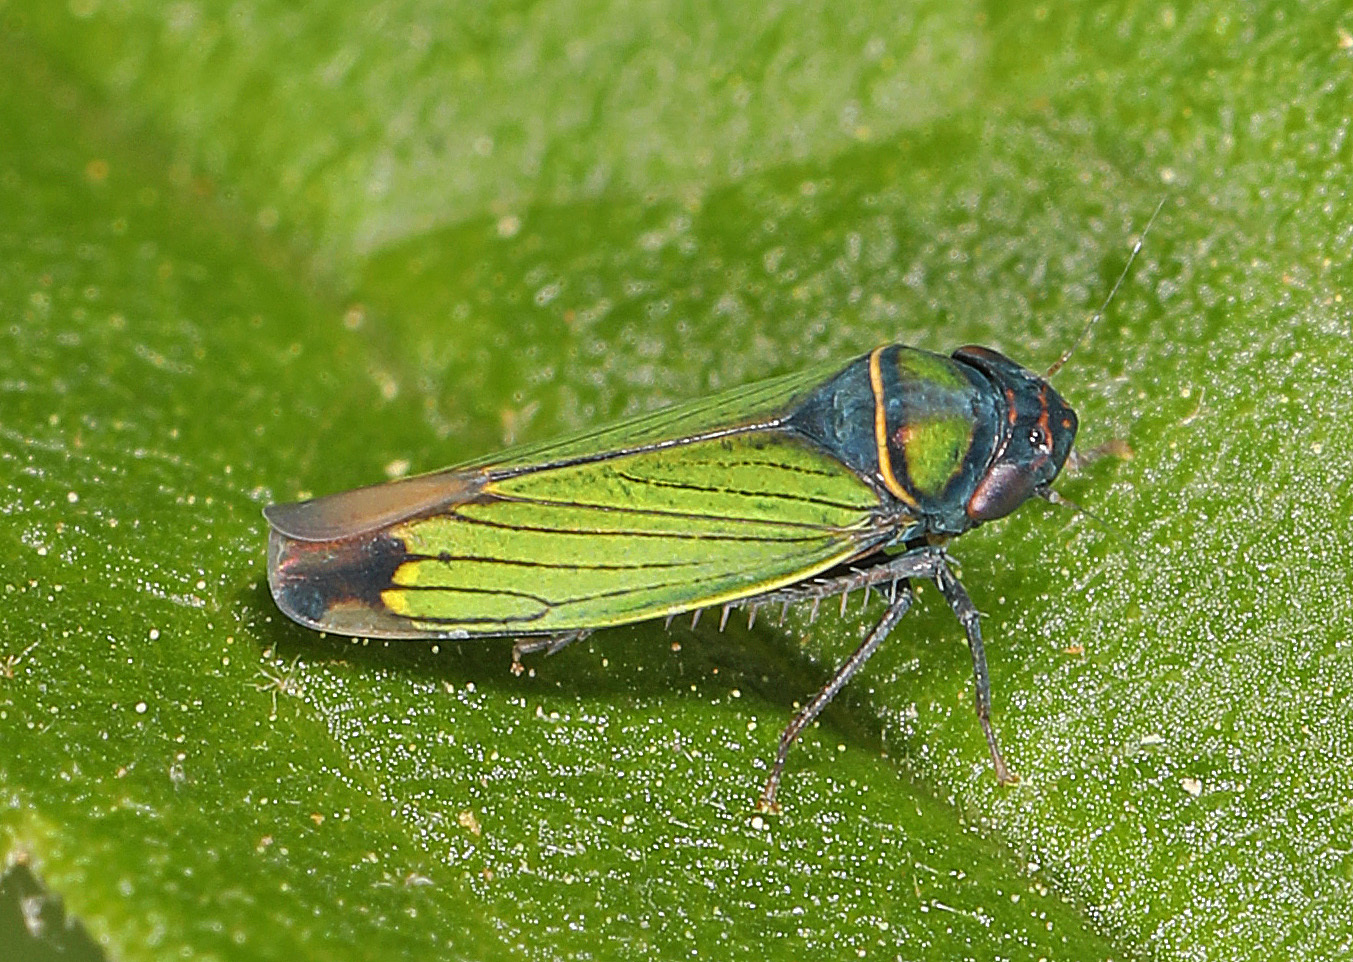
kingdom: Animalia
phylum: Arthropoda
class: Insecta
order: Hemiptera
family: Cicadellidae
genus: Tylozygus
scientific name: Tylozygus geometricus
